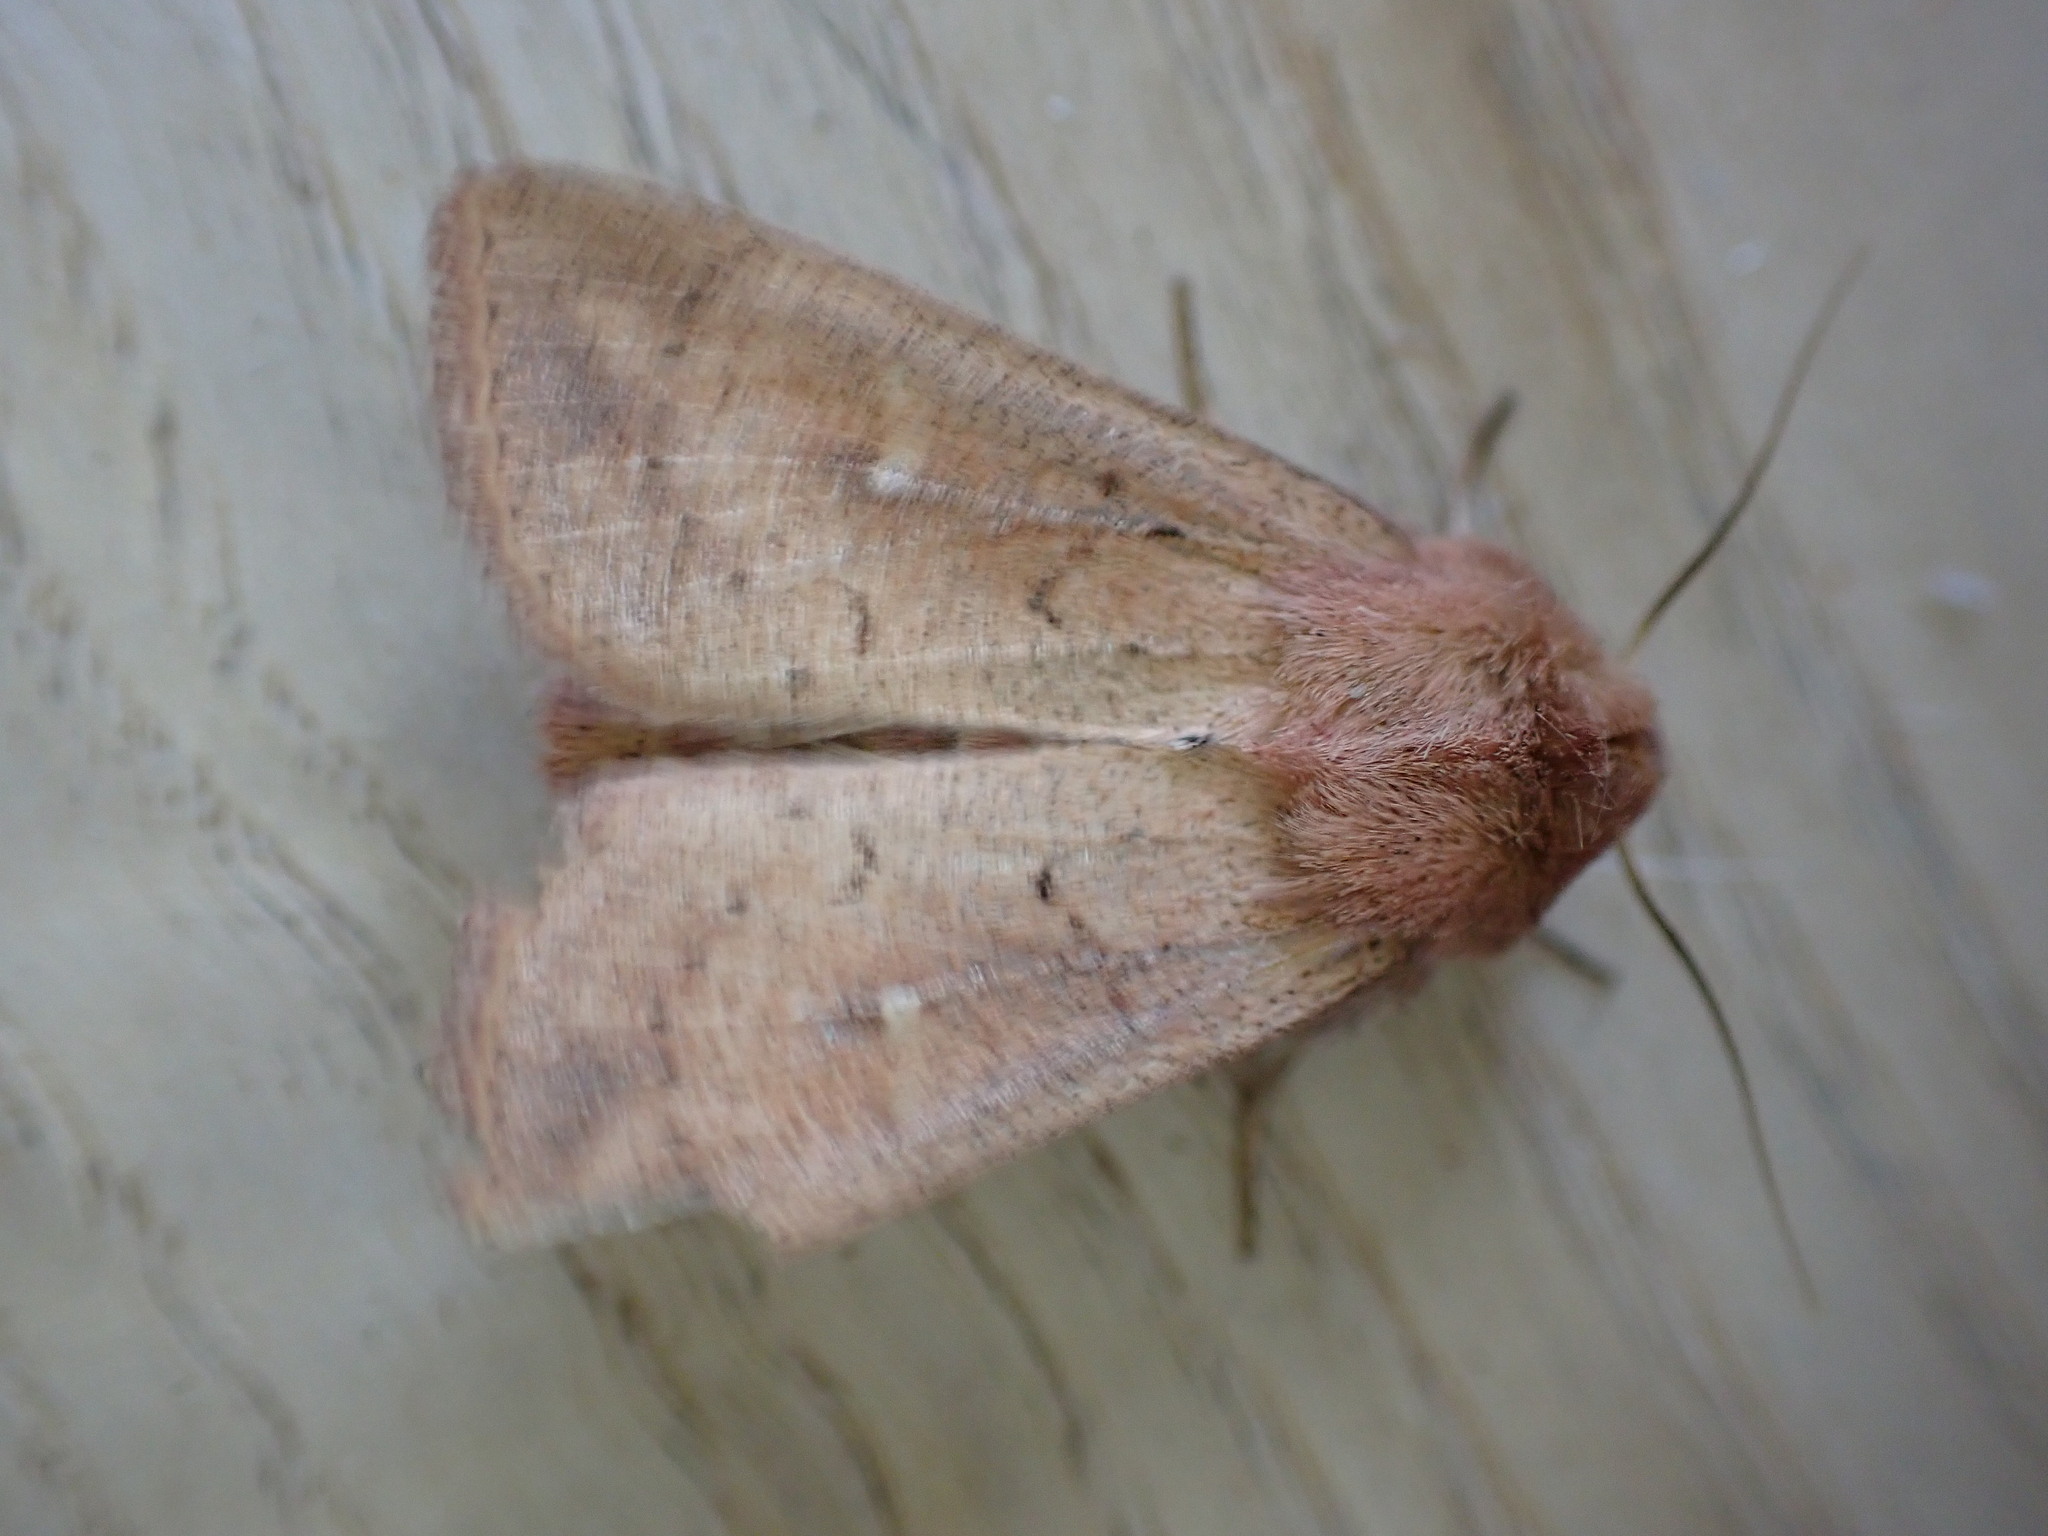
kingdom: Animalia
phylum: Arthropoda
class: Insecta
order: Lepidoptera
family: Noctuidae
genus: Mythimna
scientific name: Mythimna ferrago
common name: Clay
